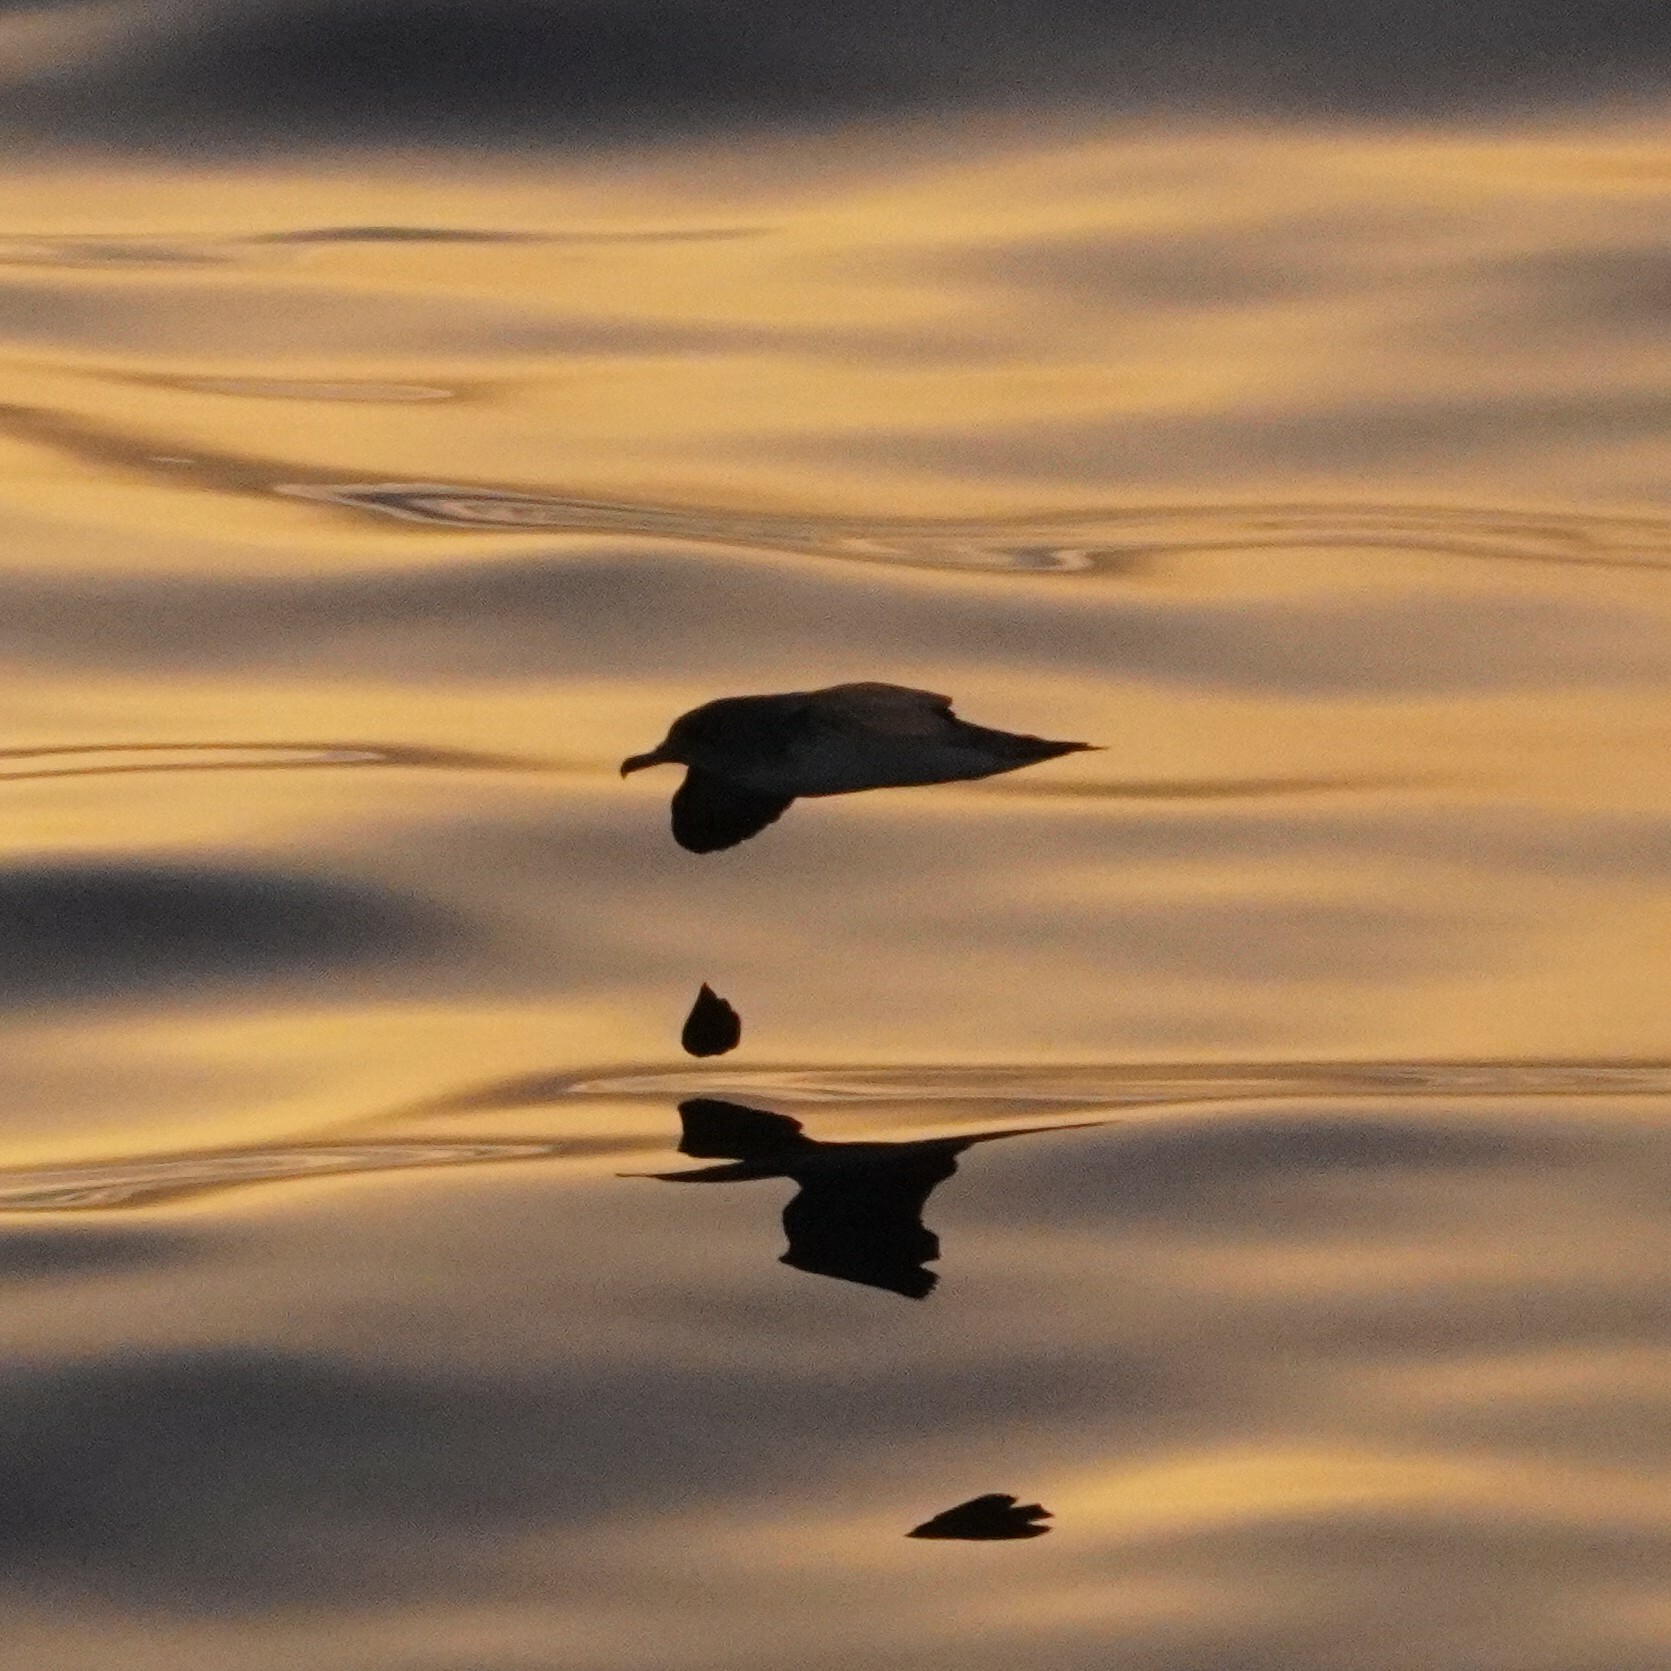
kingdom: Animalia
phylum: Chordata
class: Aves
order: Procellariiformes
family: Procellariidae
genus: Calonectris
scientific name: Calonectris diomedea
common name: Cory's shearwater
